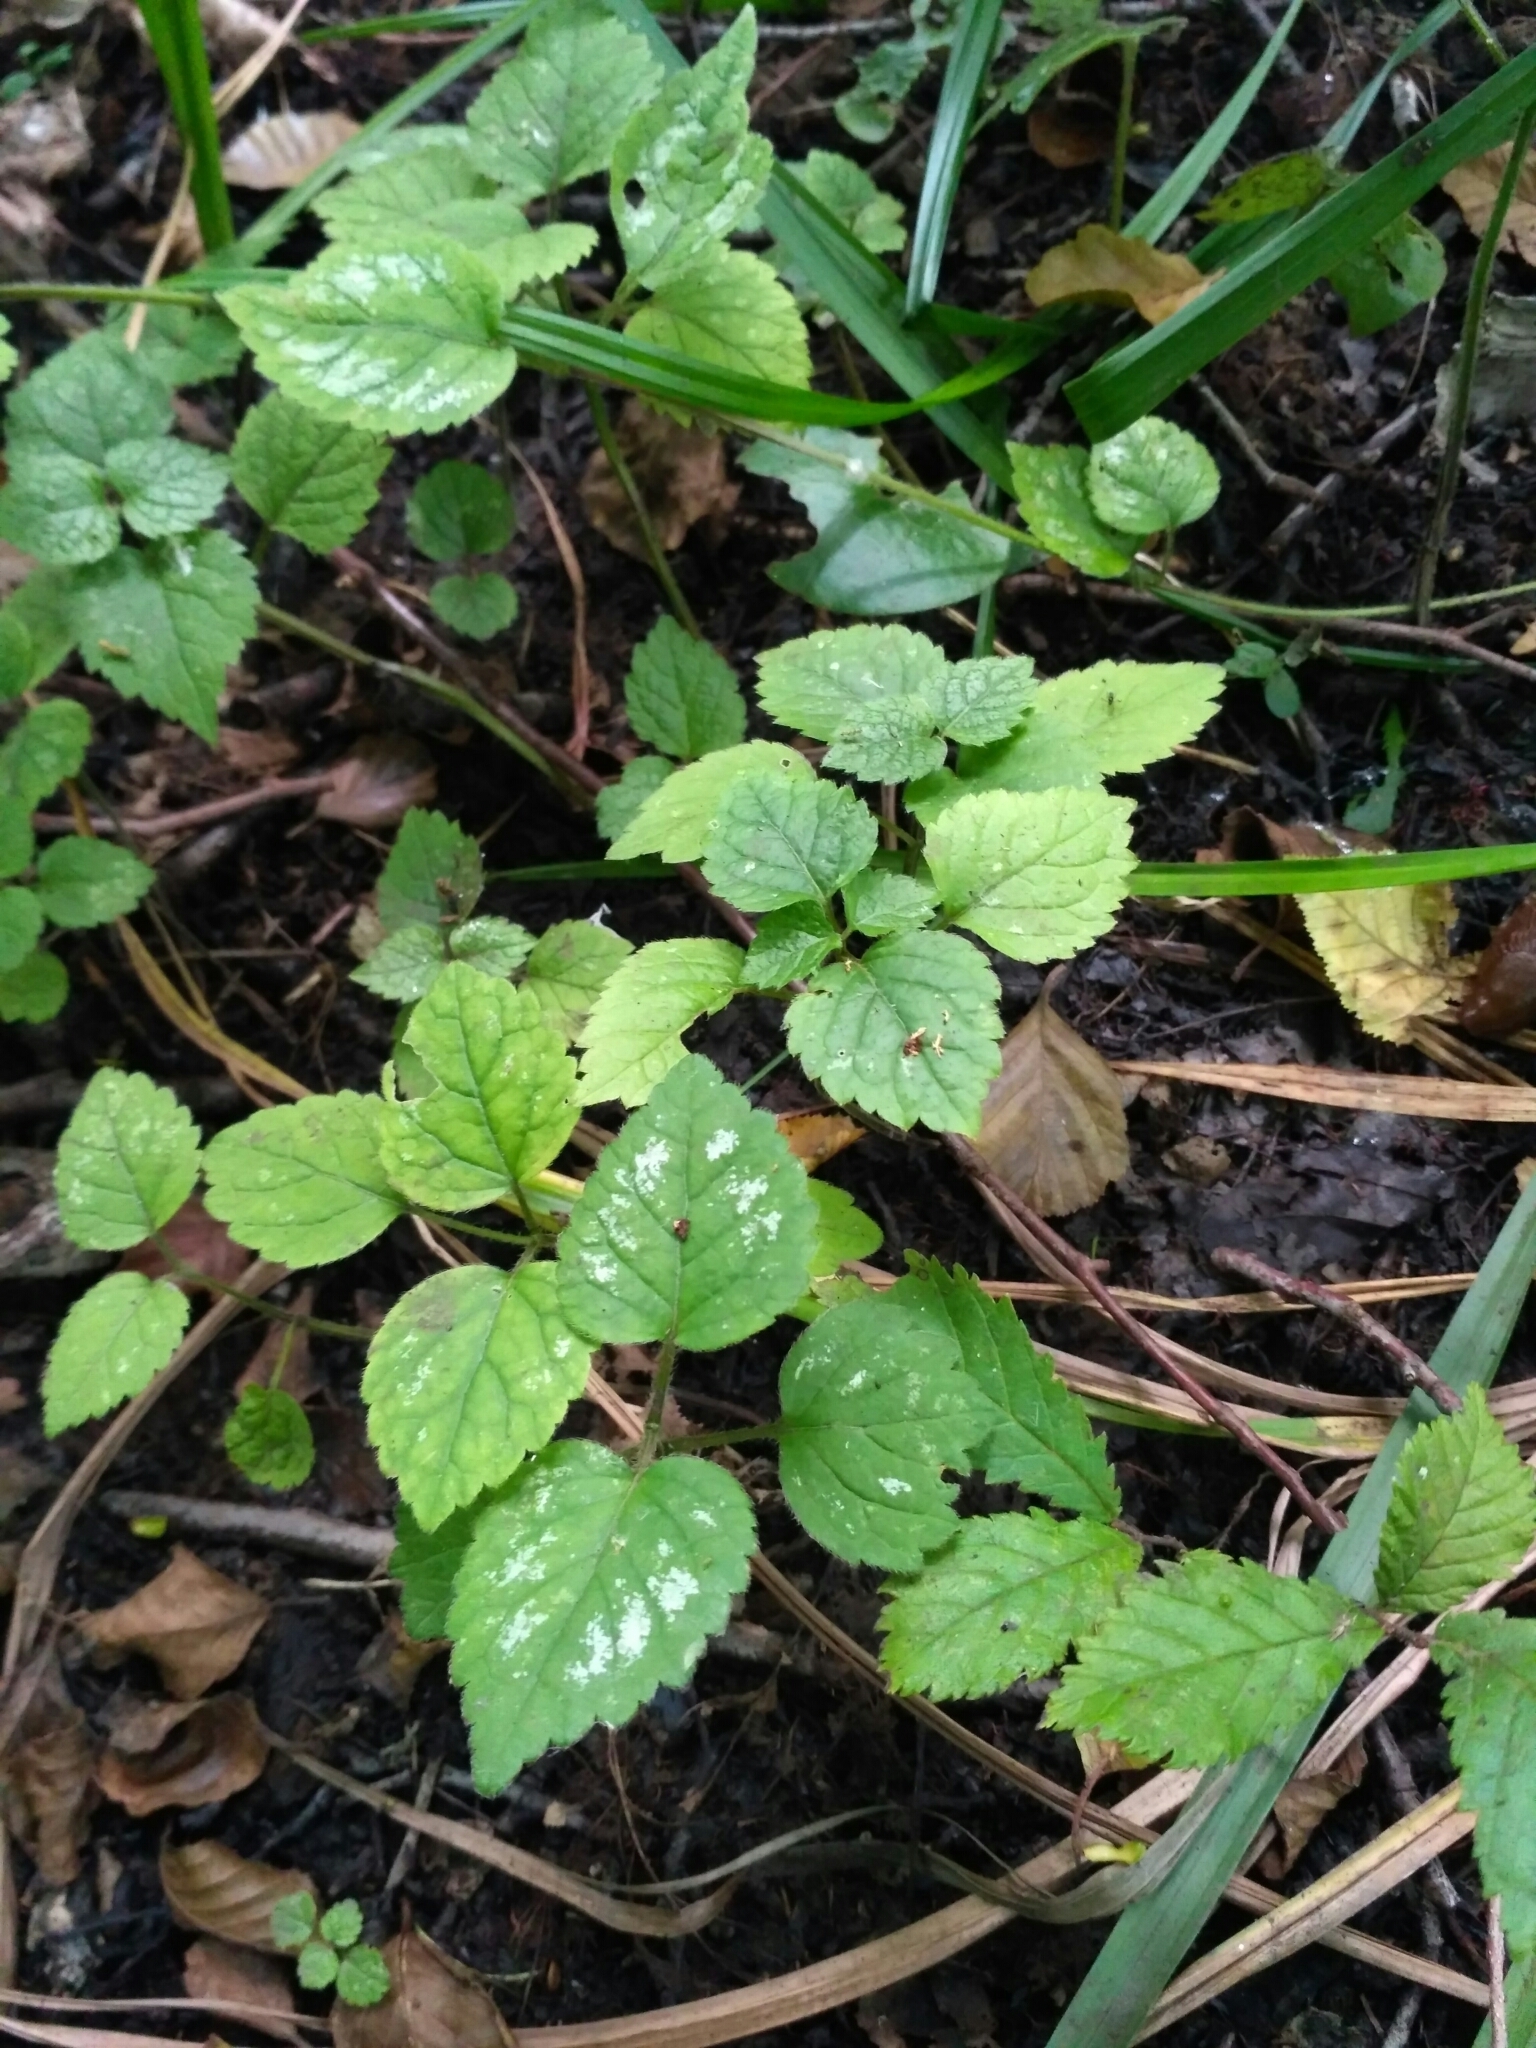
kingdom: Plantae
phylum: Tracheophyta
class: Magnoliopsida
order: Lamiales
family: Lamiaceae
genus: Lamium
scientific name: Lamium galeobdolon
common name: Yellow archangel
